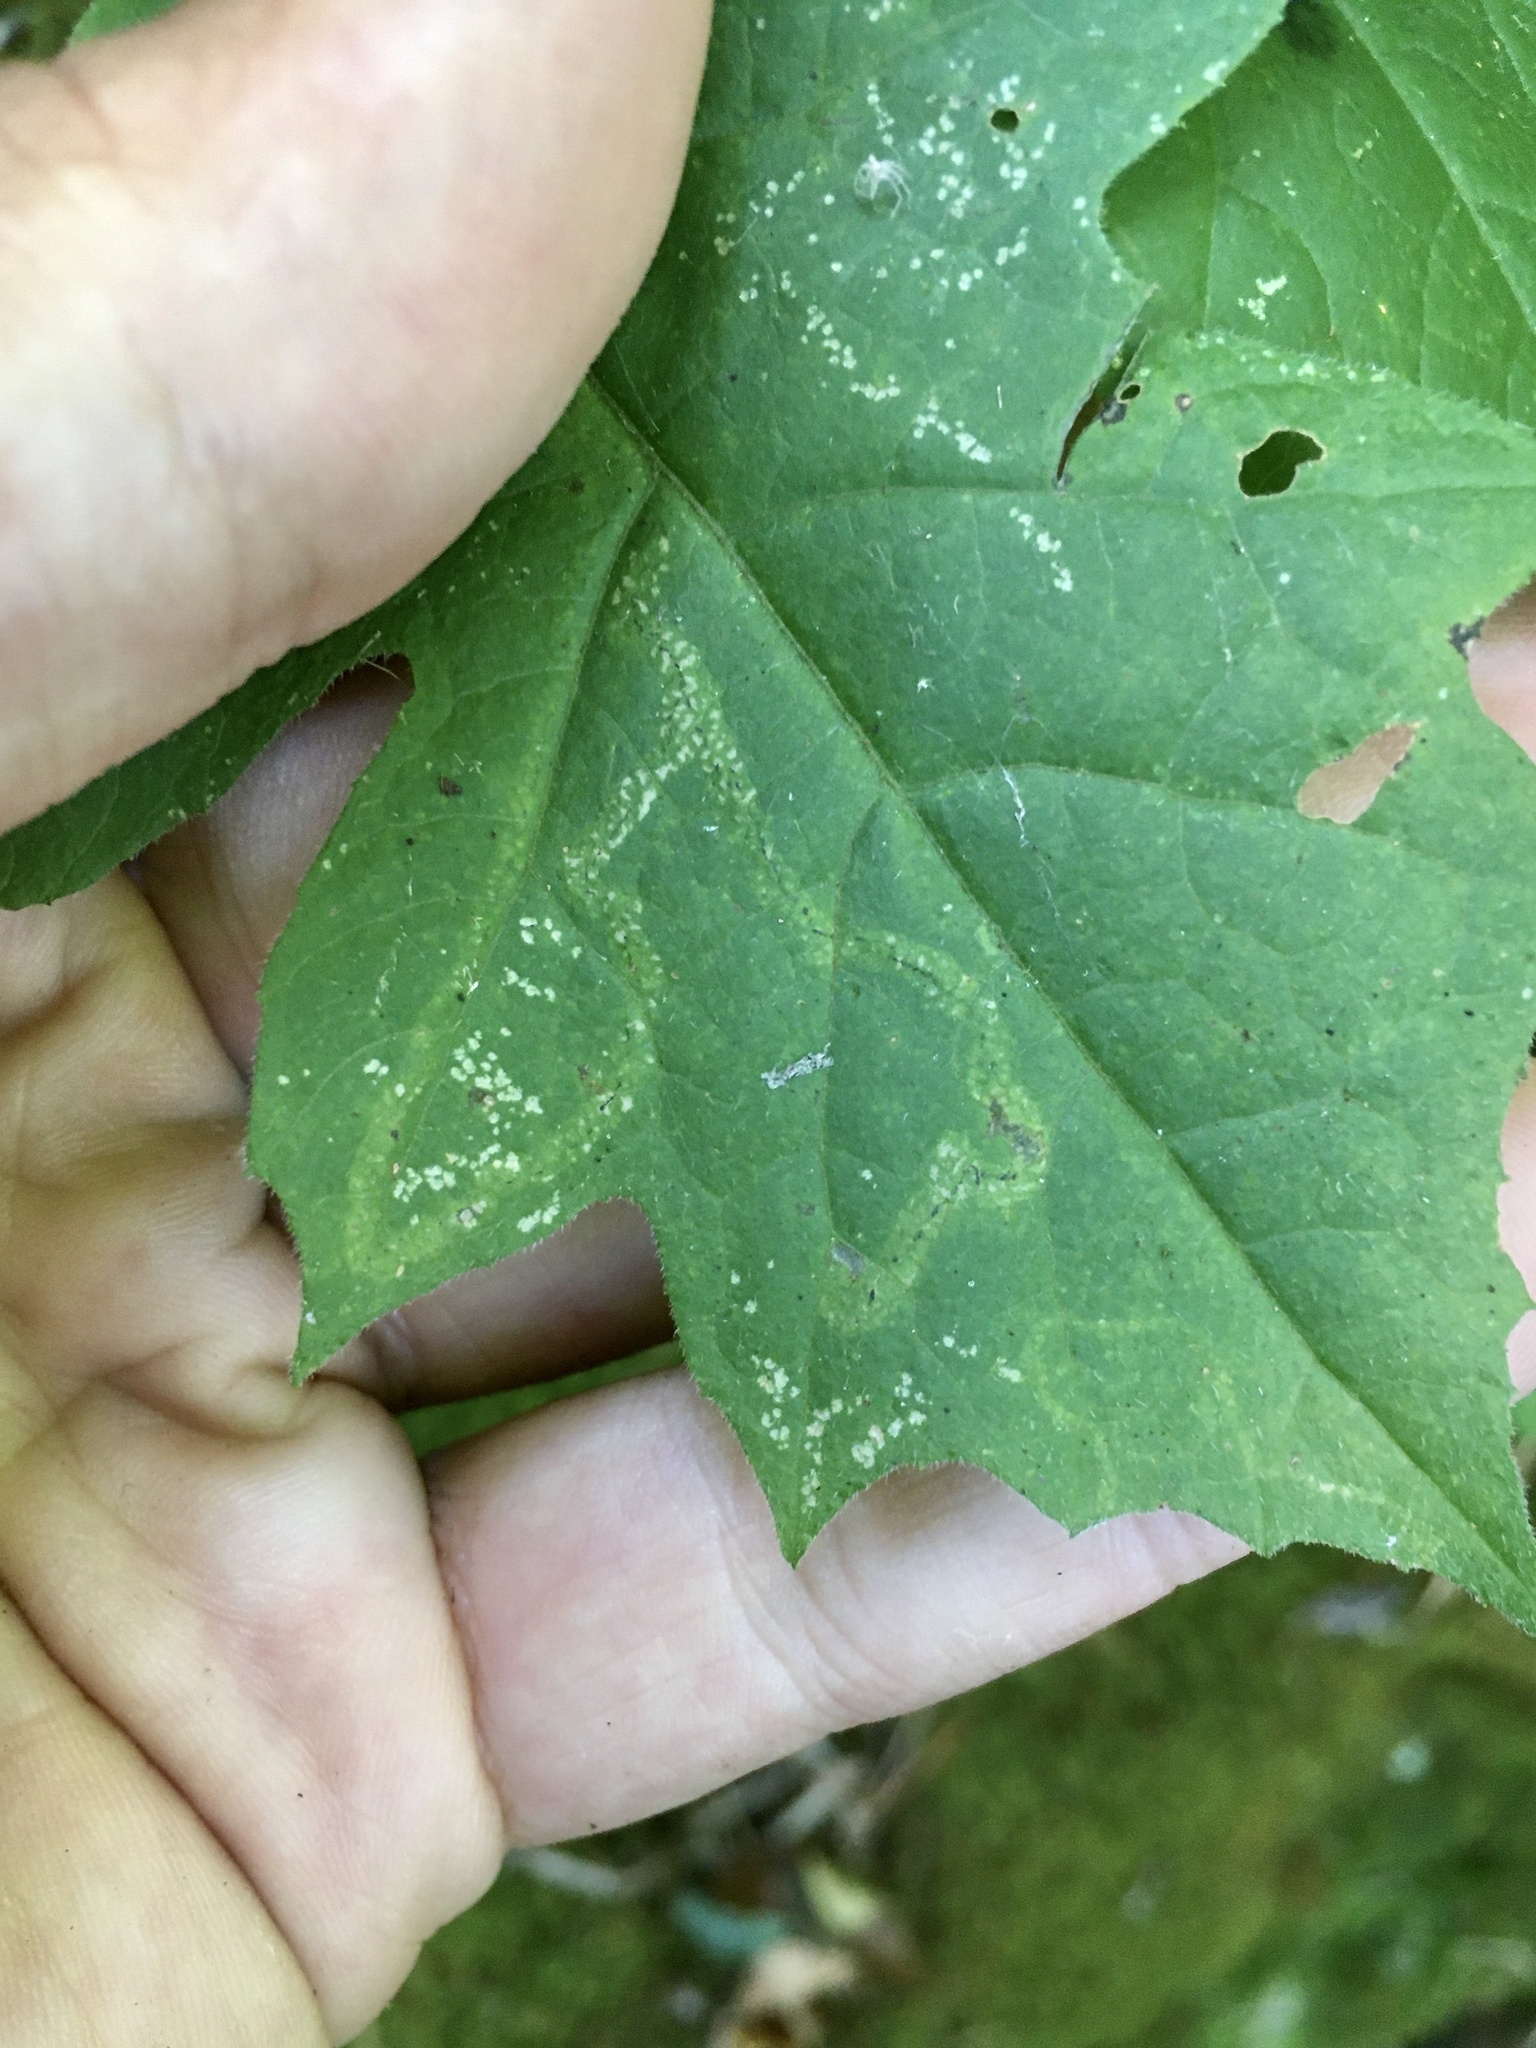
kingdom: Animalia
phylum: Arthropoda
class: Insecta
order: Diptera
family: Agromyzidae
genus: Liriomyza
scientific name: Liriomyza hypopolymnia
